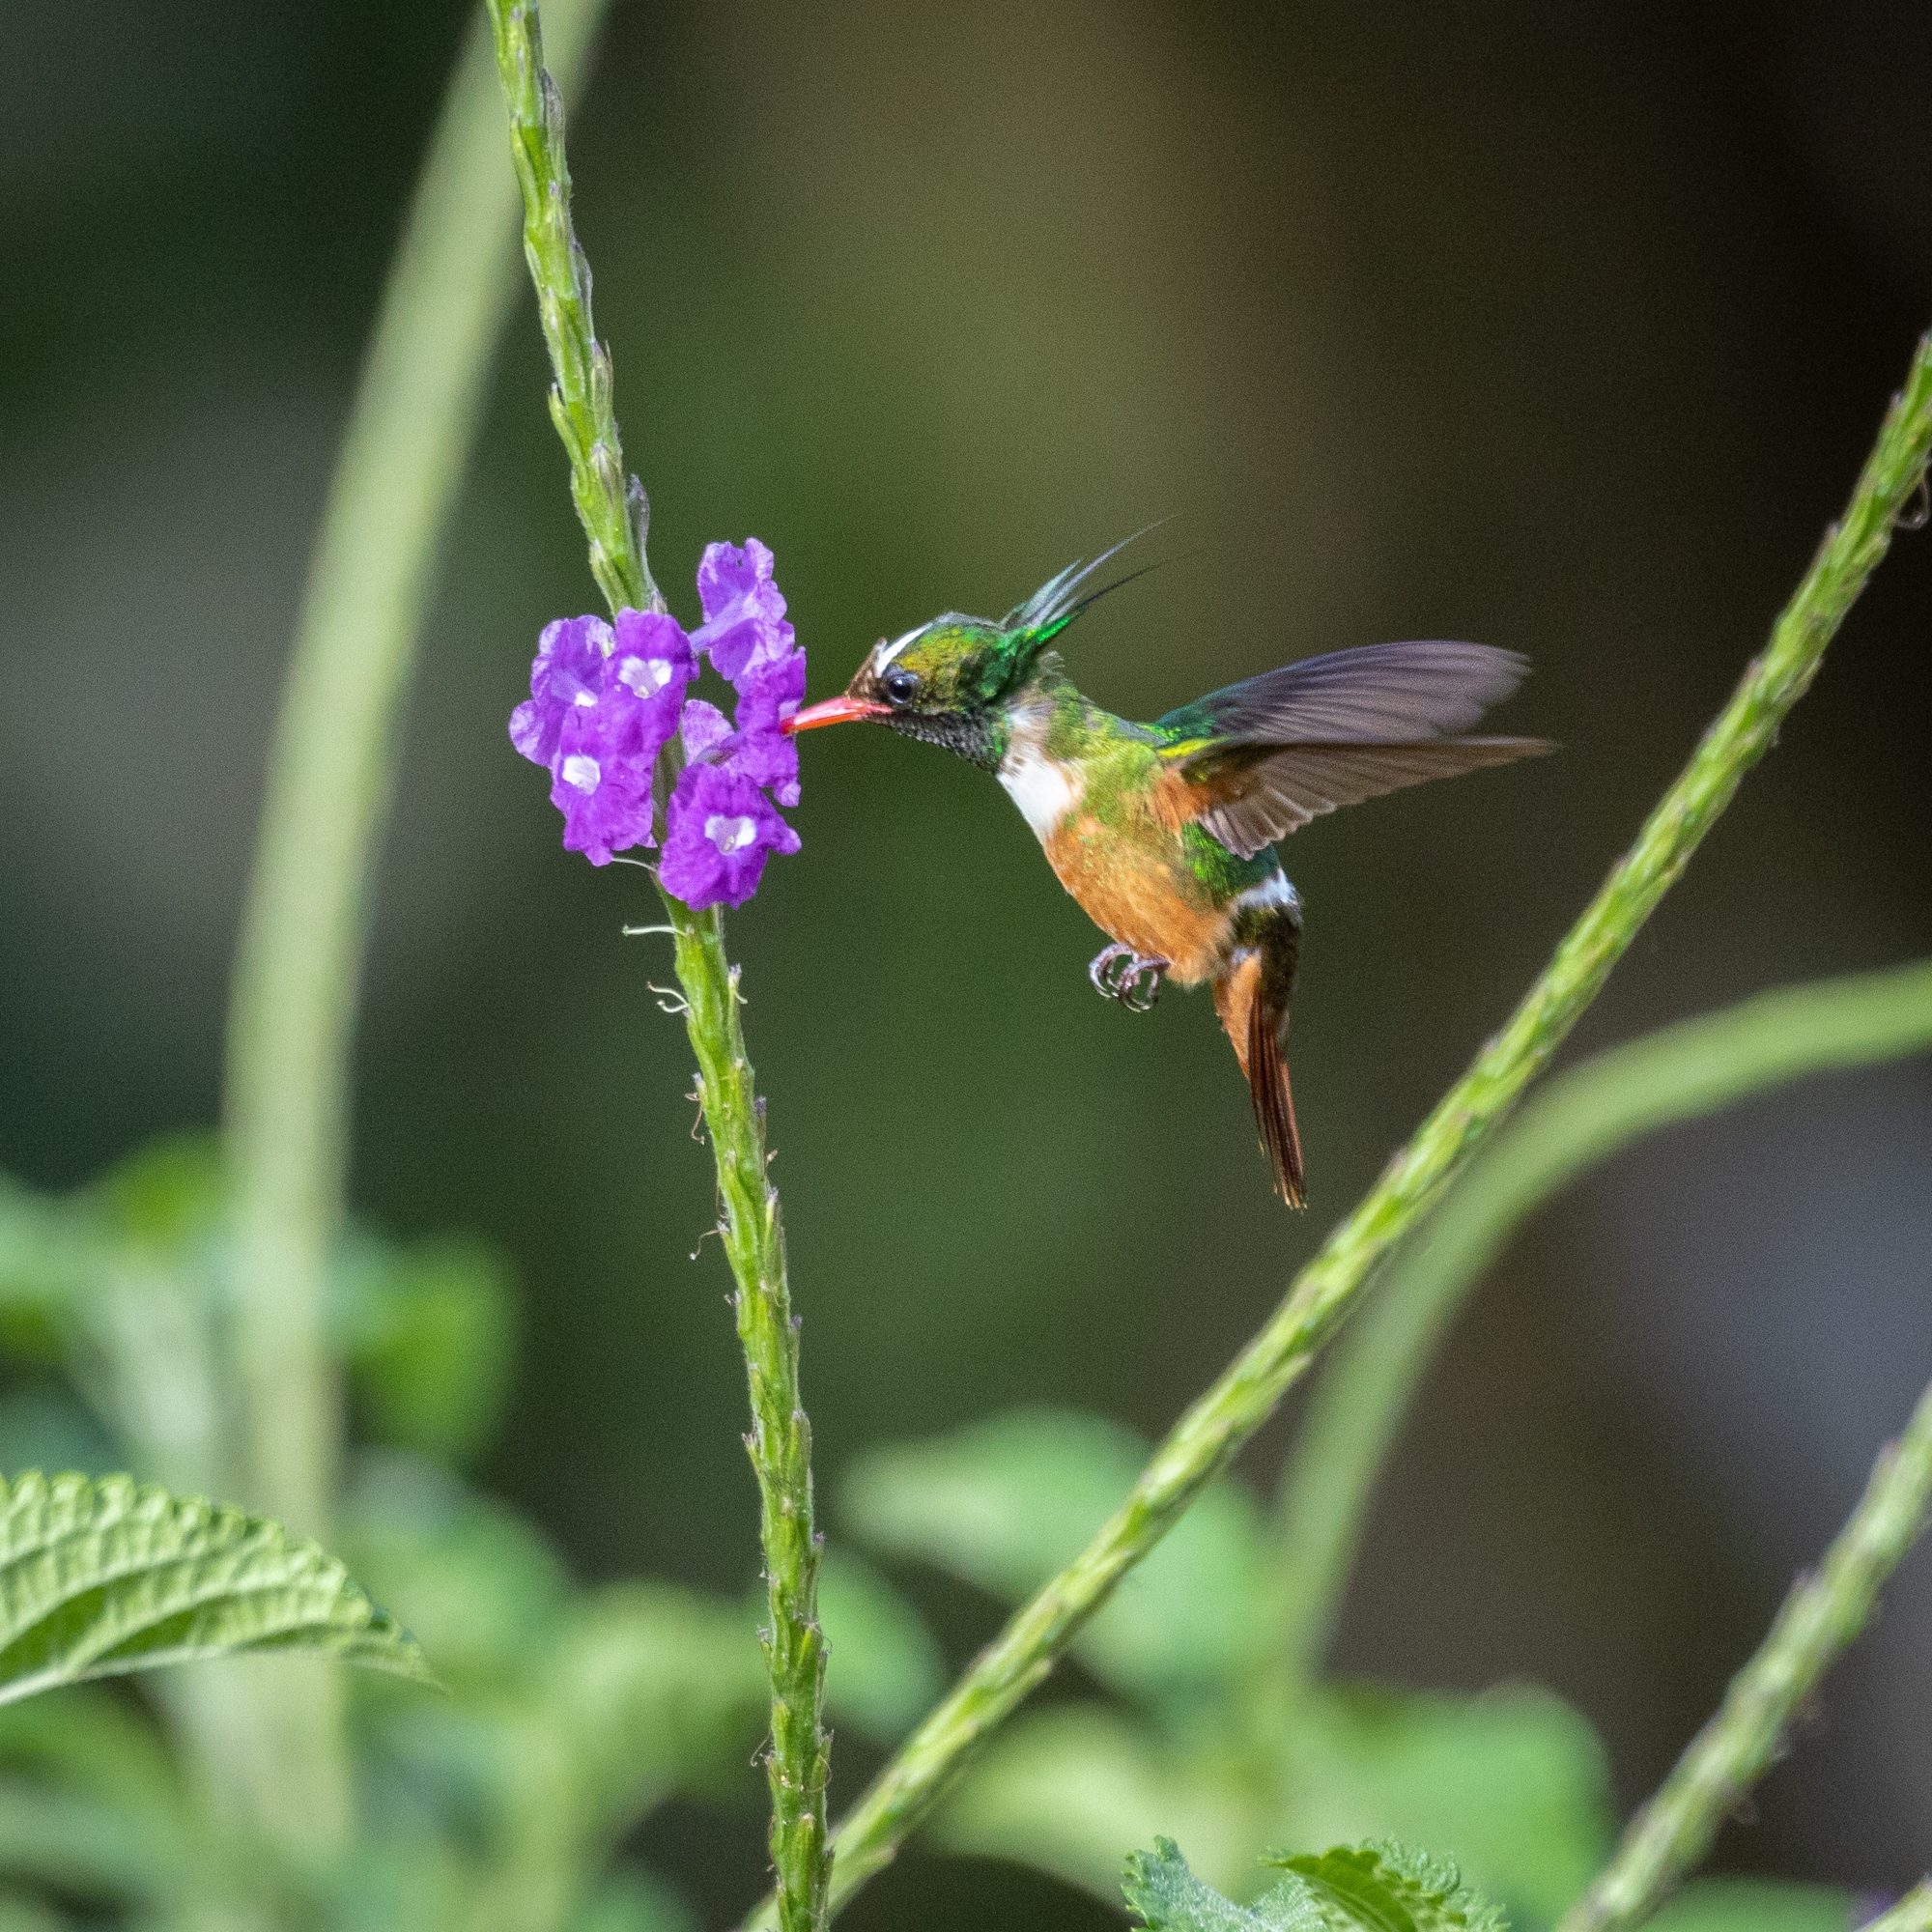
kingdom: Animalia
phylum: Chordata
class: Aves
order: Apodiformes
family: Trochilidae
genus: Lophornis
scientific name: Lophornis adorabilis
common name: White-crested coquette
